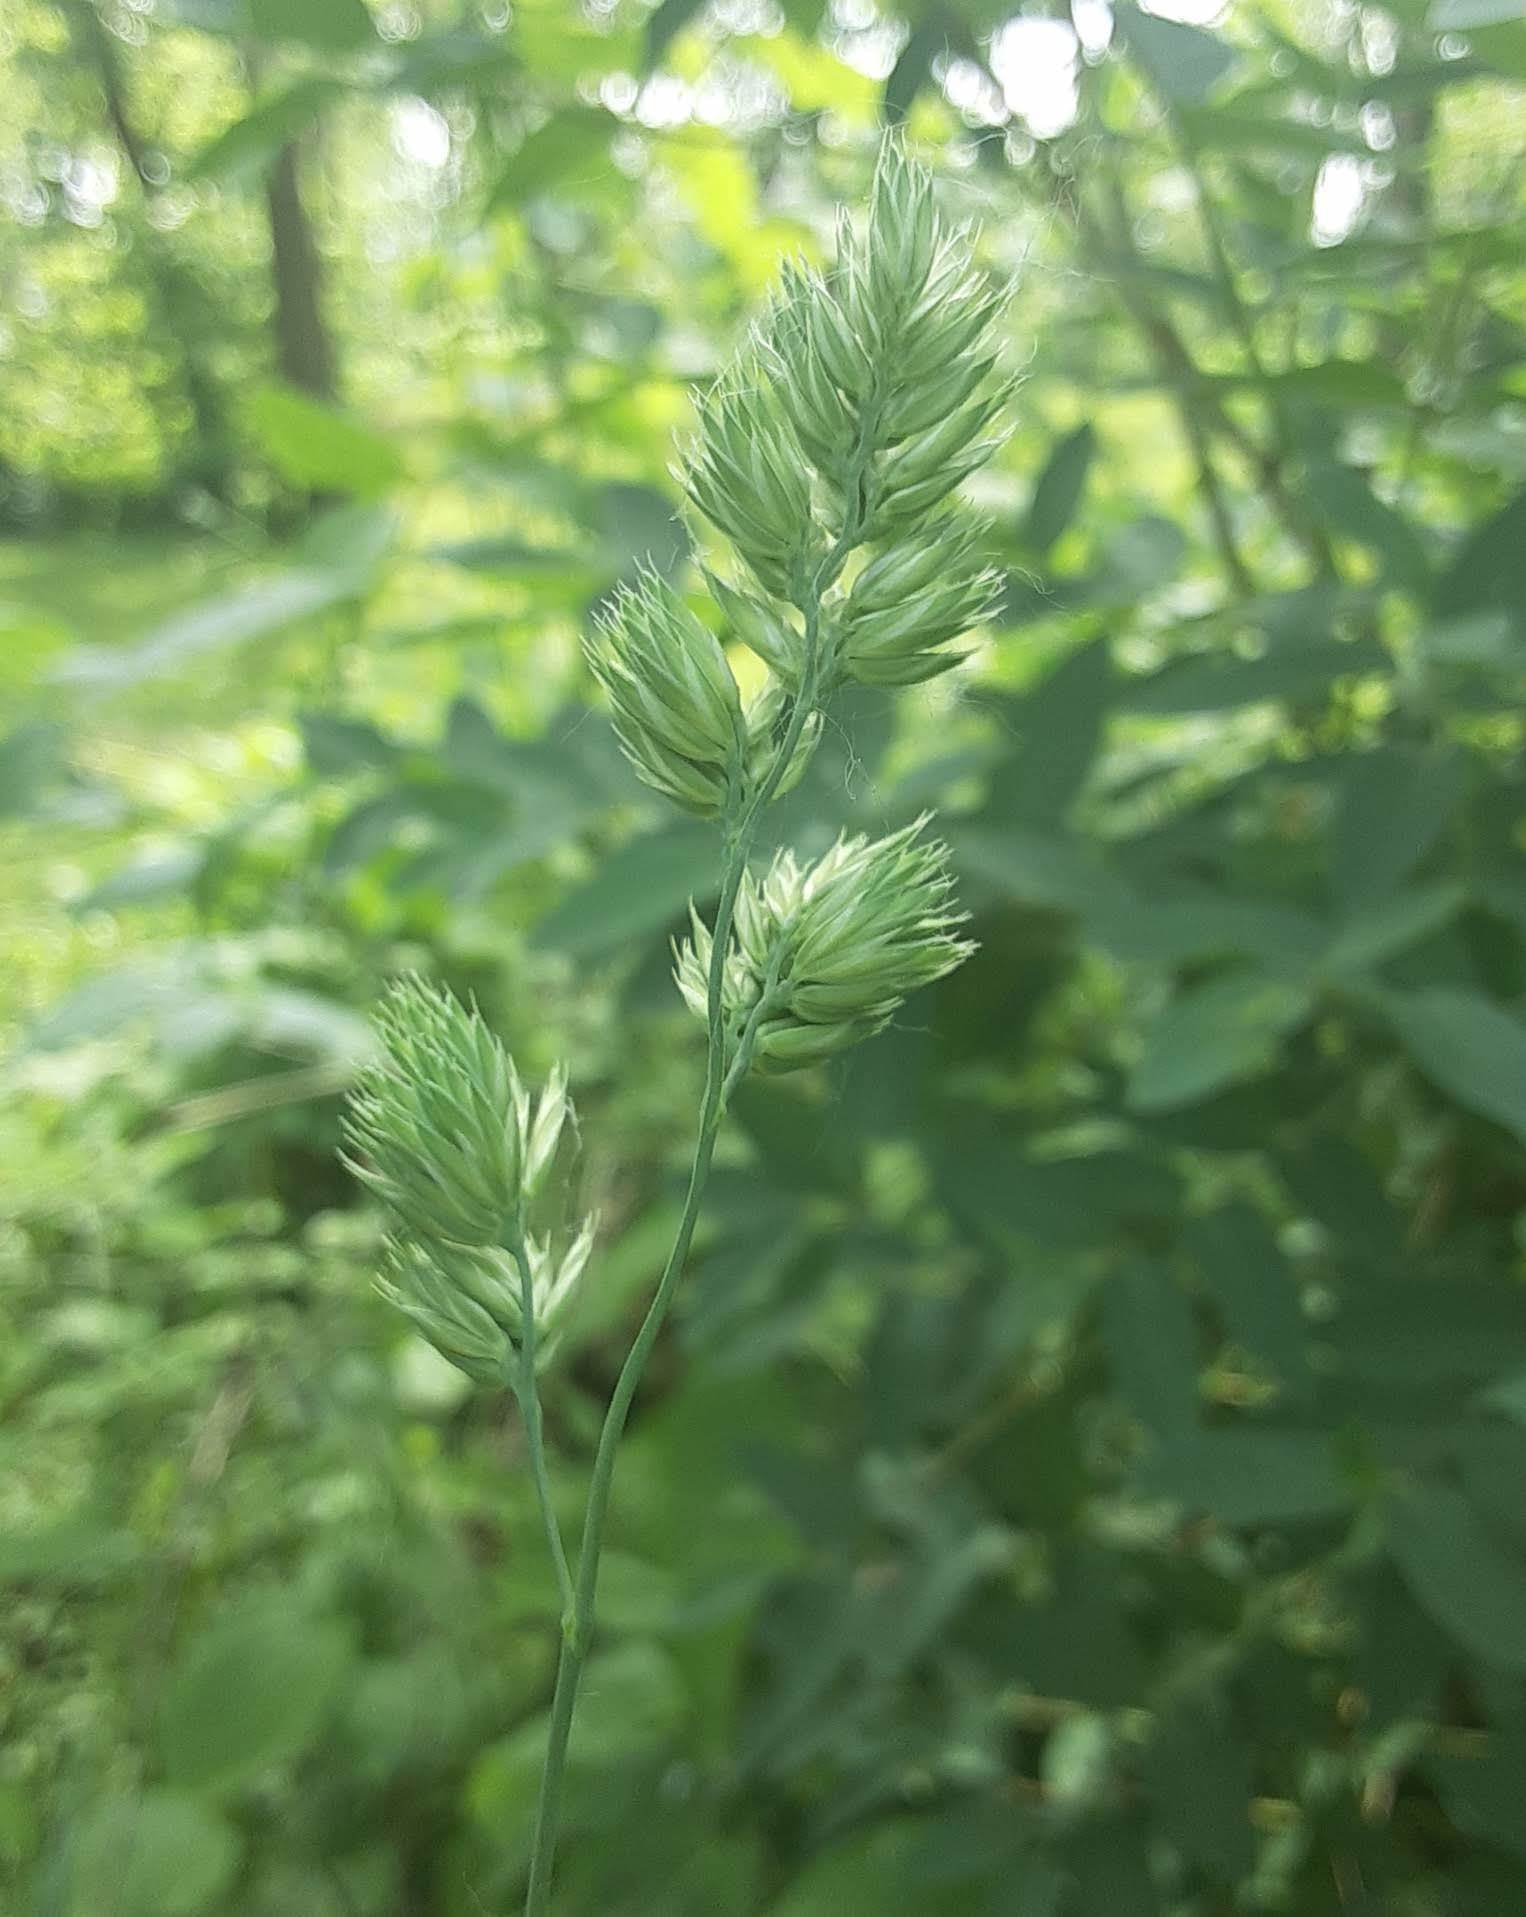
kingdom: Plantae
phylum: Tracheophyta
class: Liliopsida
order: Poales
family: Poaceae
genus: Dactylis
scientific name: Dactylis glomerata
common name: Orchardgrass
